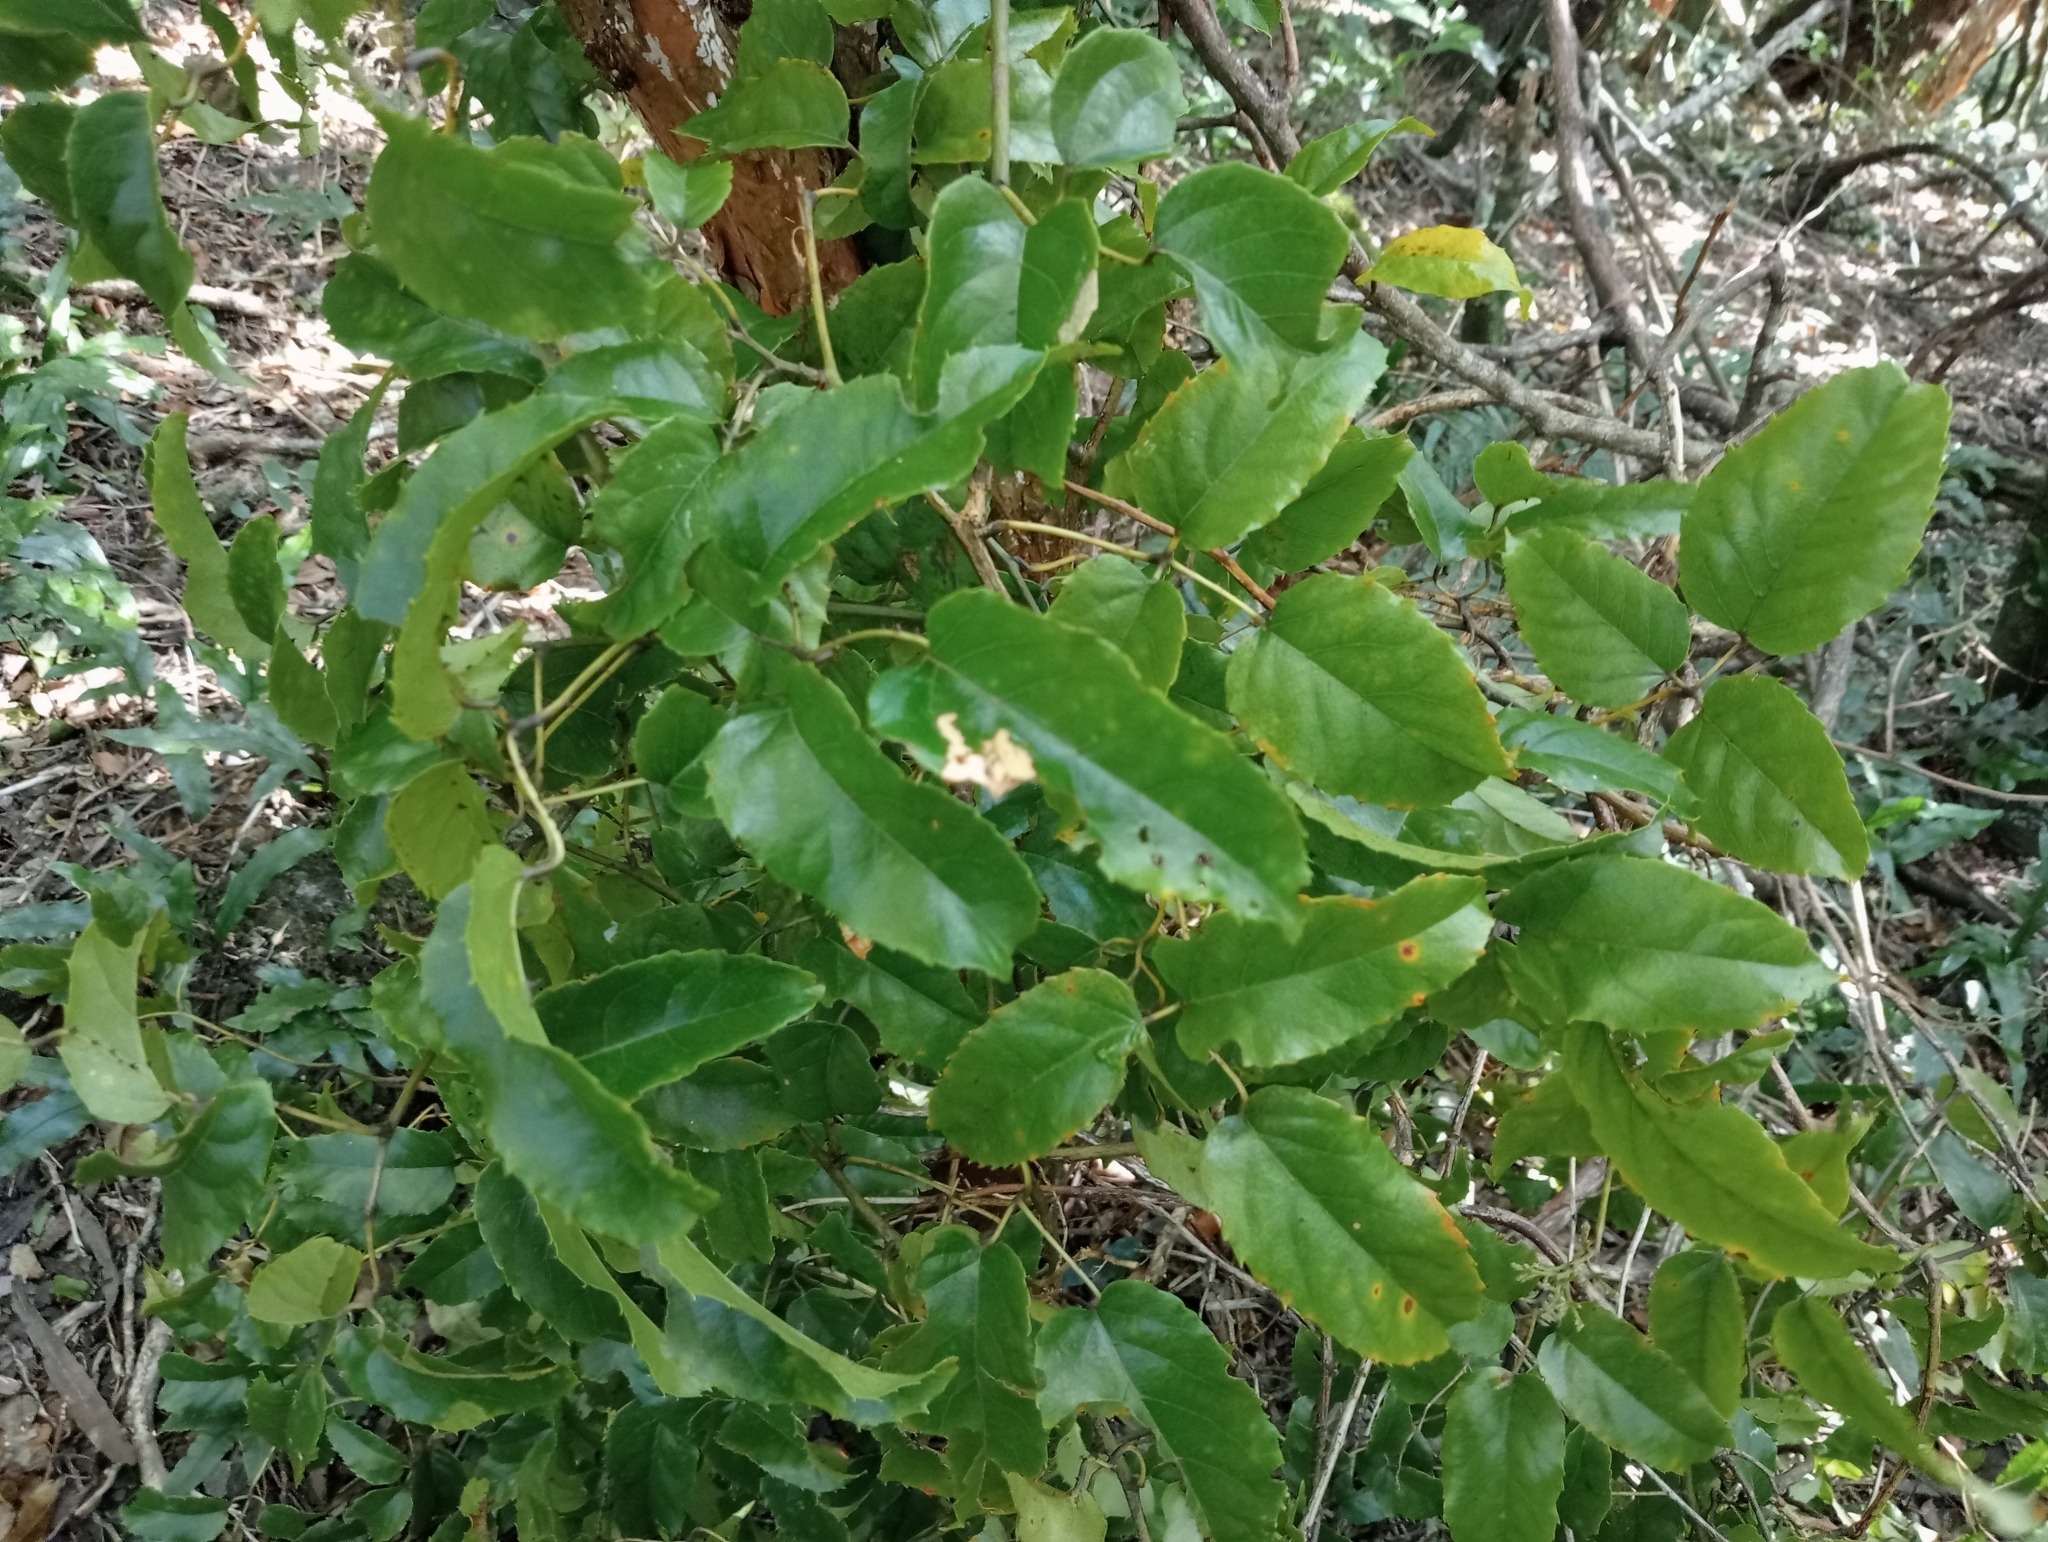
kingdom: Plantae
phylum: Tracheophyta
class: Magnoliopsida
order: Rosales
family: Rosaceae
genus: Rubus
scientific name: Rubus cissoides
